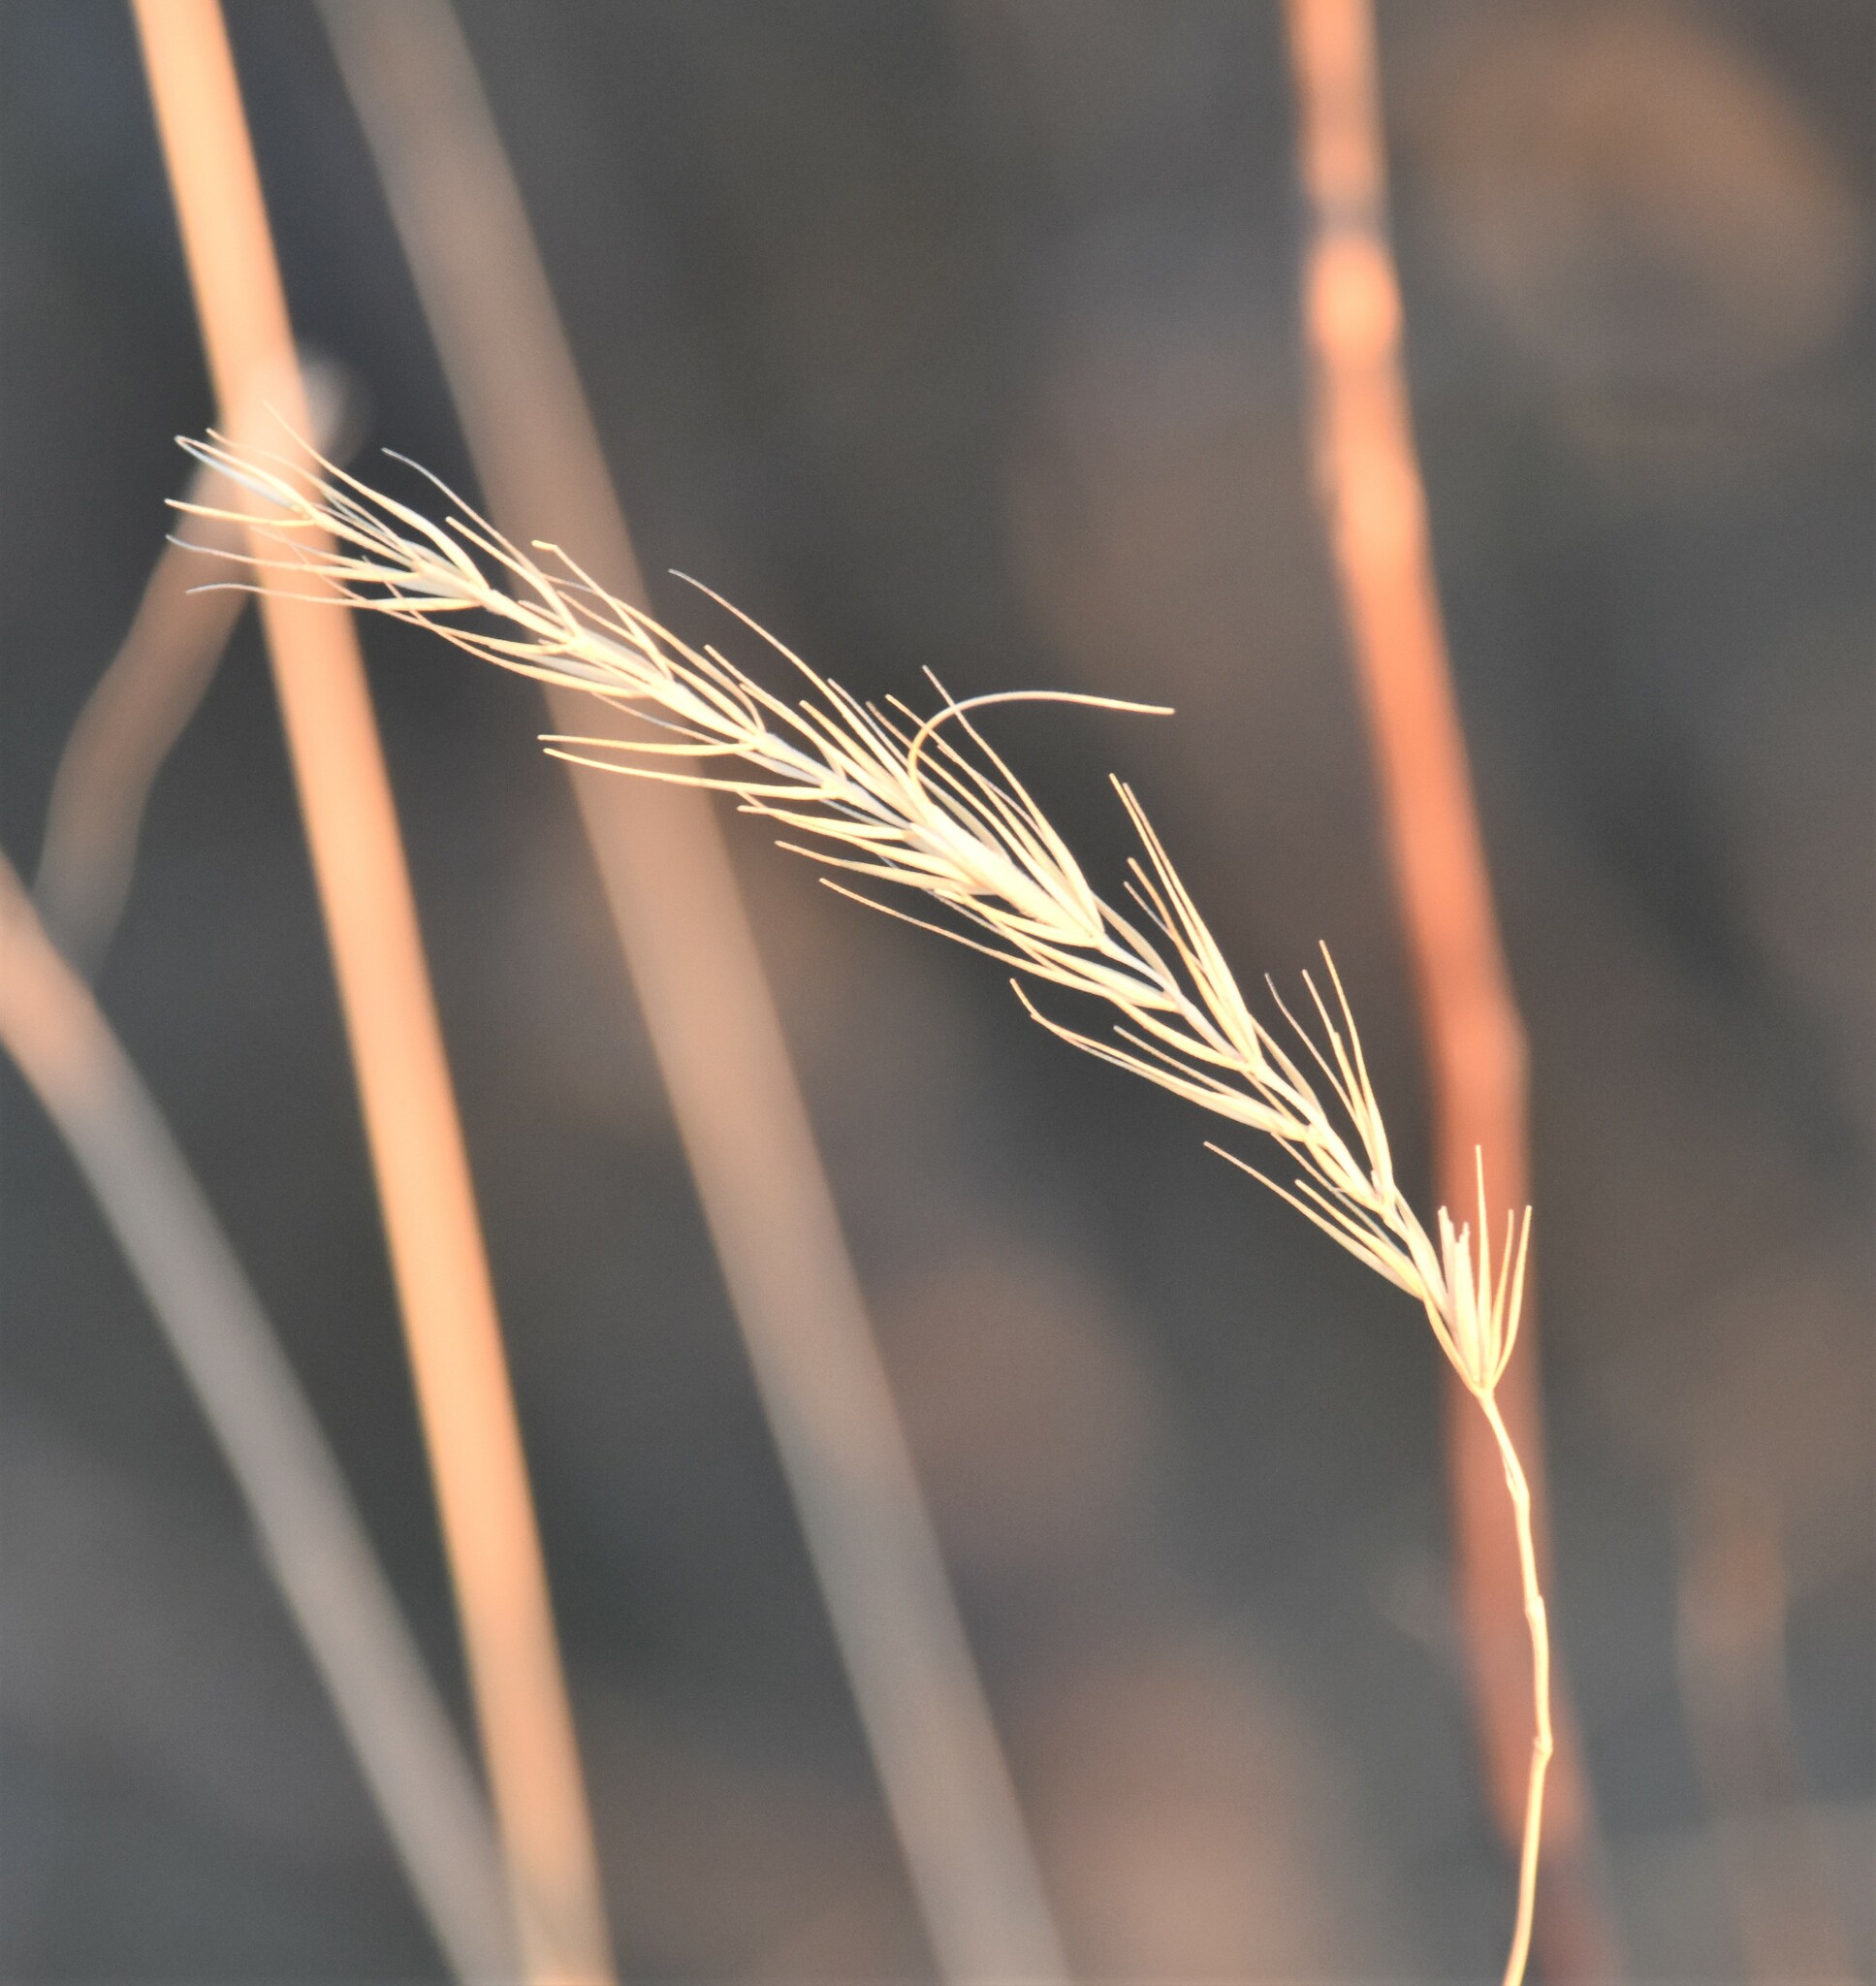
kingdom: Plantae
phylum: Tracheophyta
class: Liliopsida
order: Poales
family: Poaceae
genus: Elymus
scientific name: Elymus canadensis
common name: Canada wild rye
